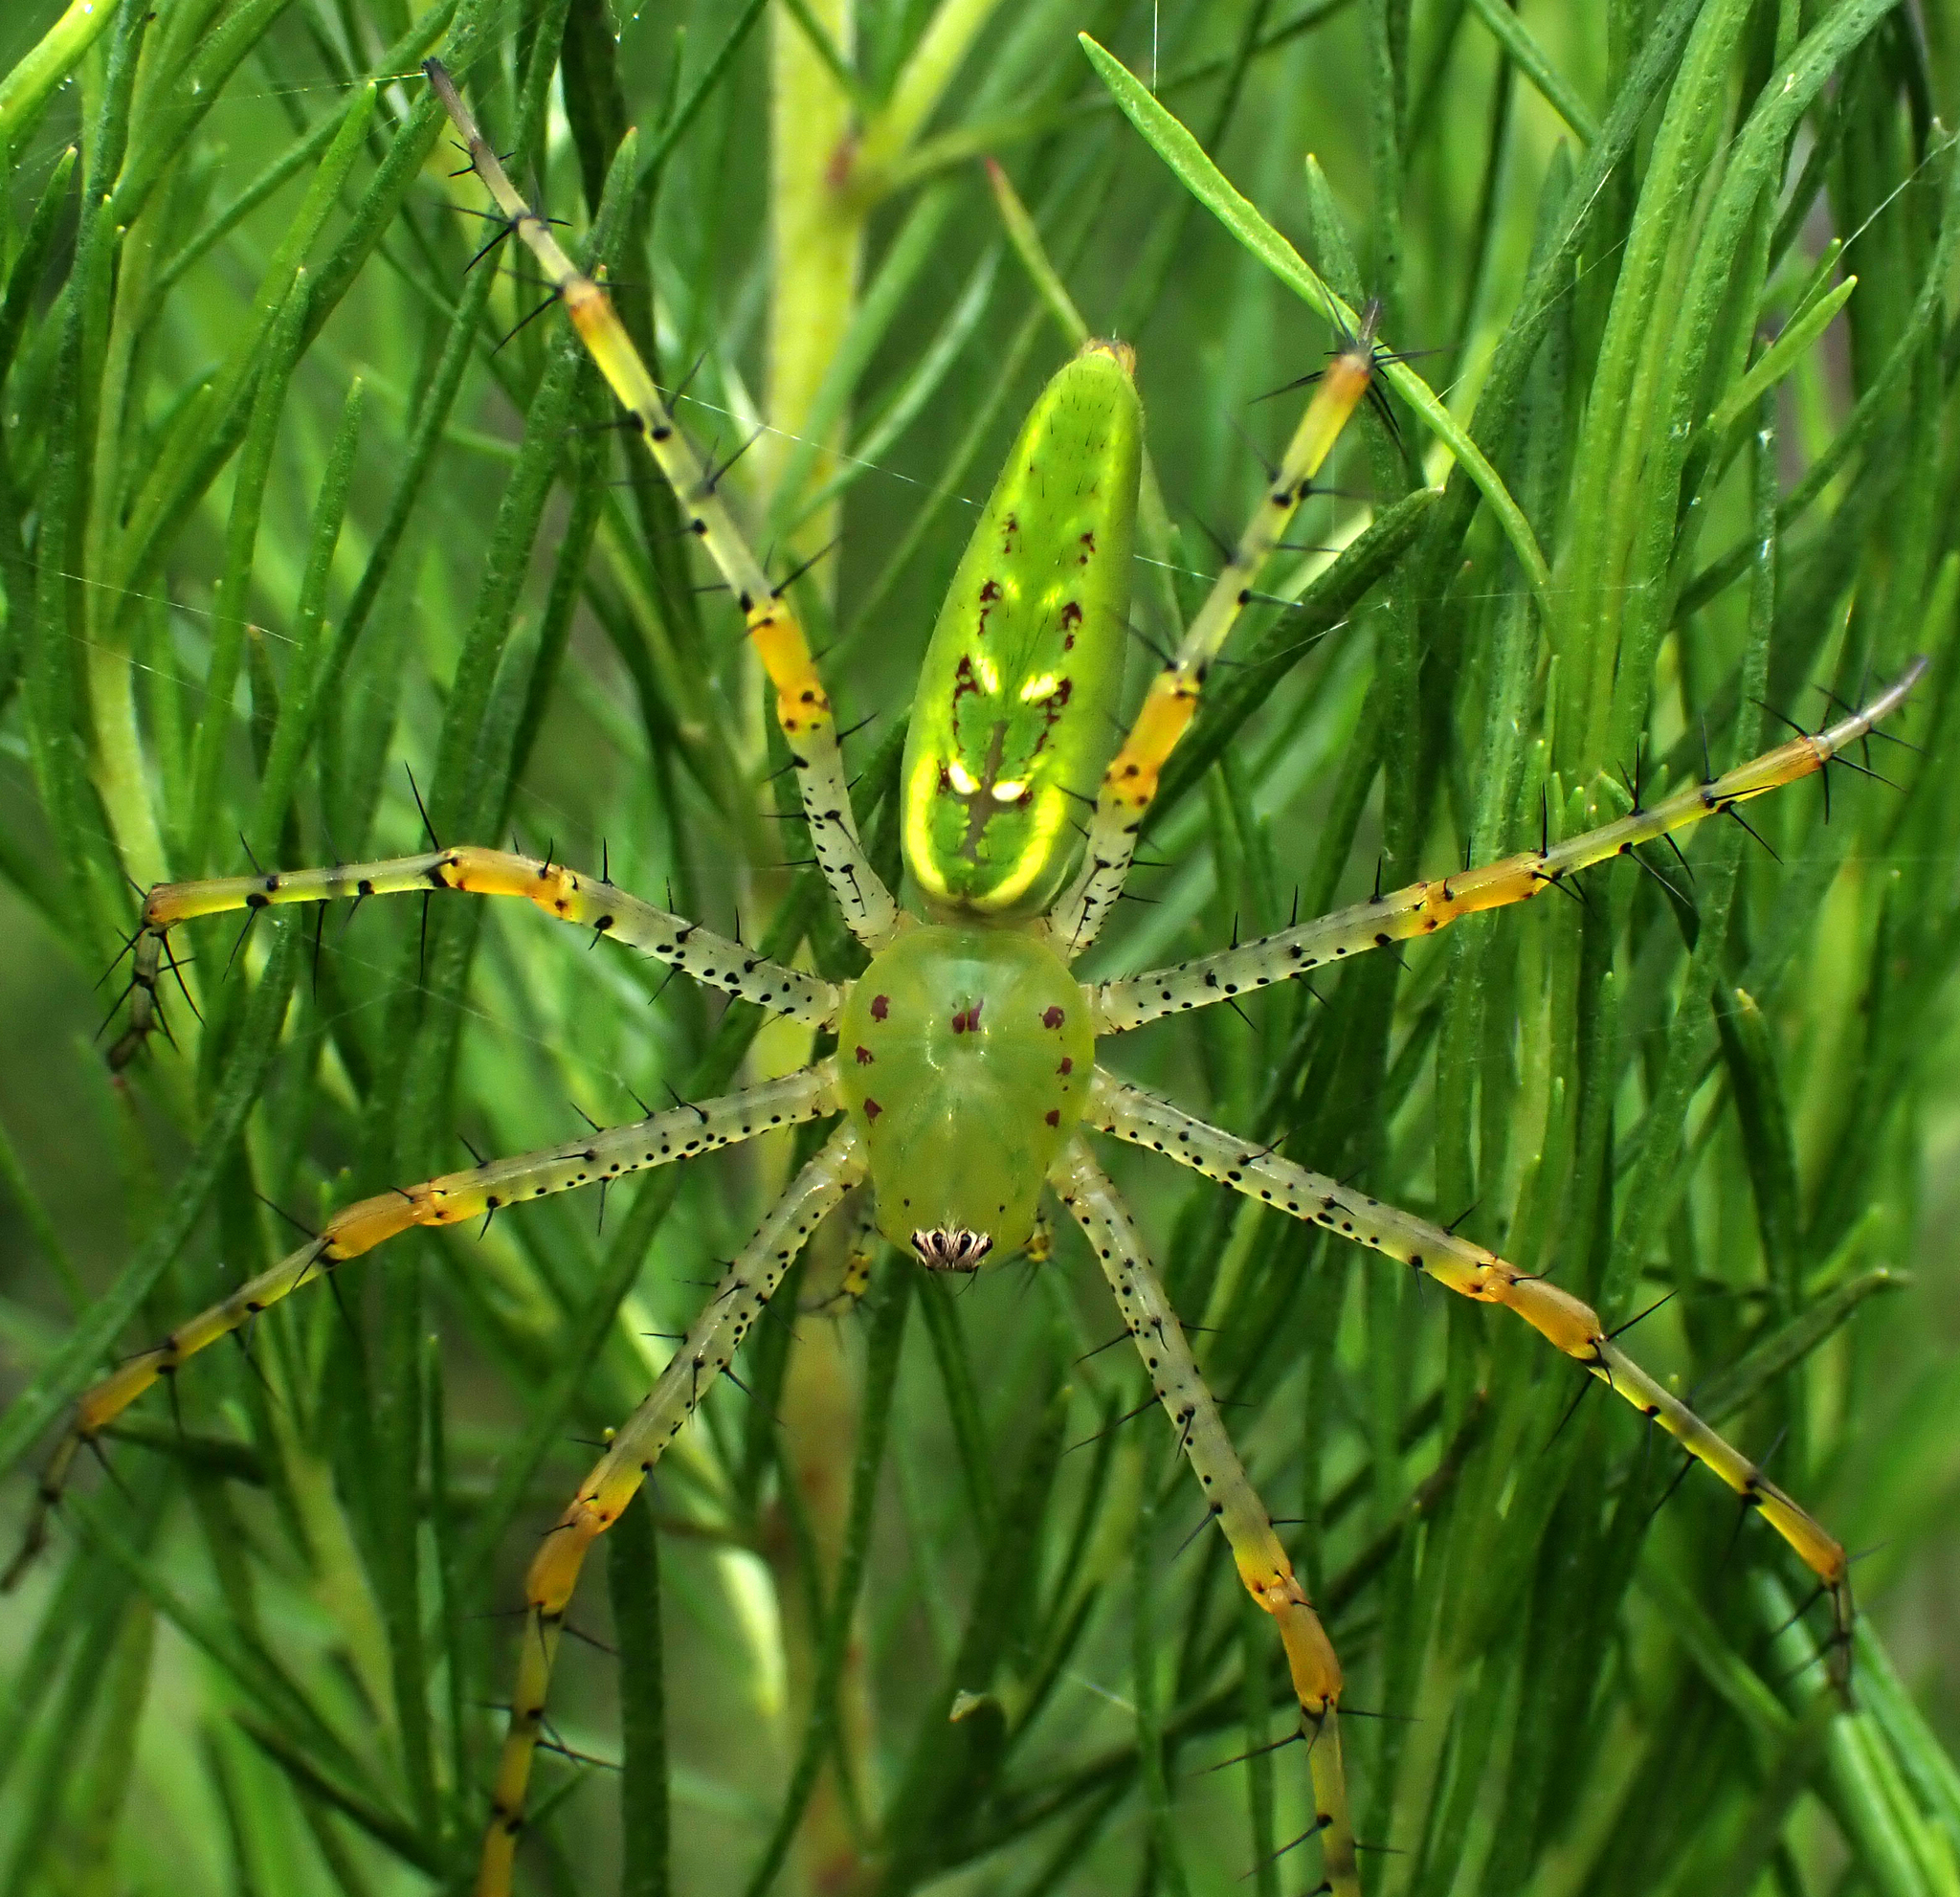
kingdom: Animalia
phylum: Arthropoda
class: Arachnida
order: Araneae
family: Oxyopidae
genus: Peucetia
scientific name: Peucetia viridans
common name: Lynx spiders
